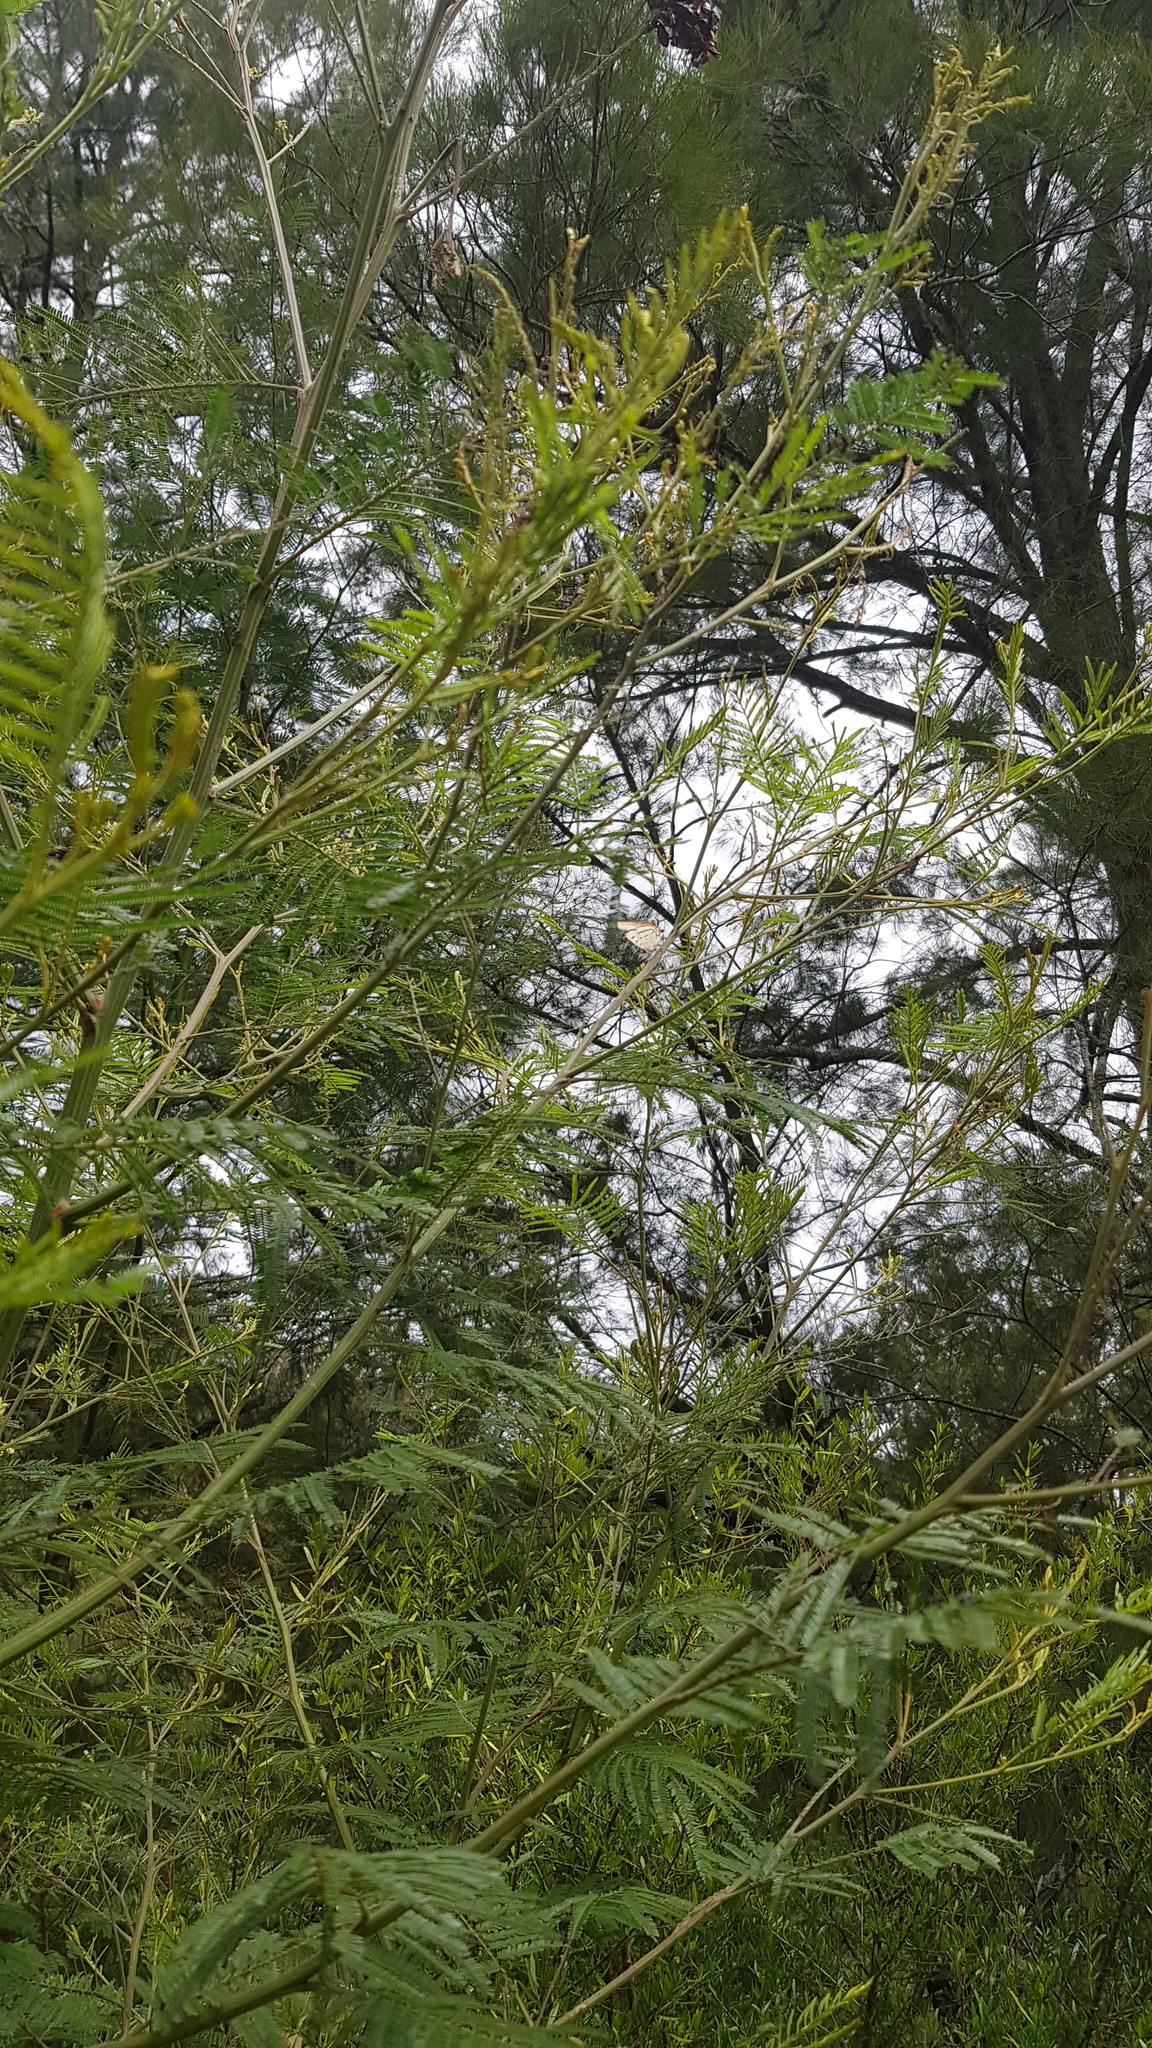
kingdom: Animalia
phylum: Arthropoda
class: Insecta
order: Lepidoptera
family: Lycaenidae
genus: Jalmenus
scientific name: Jalmenus evagoras
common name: Common imperial blue
